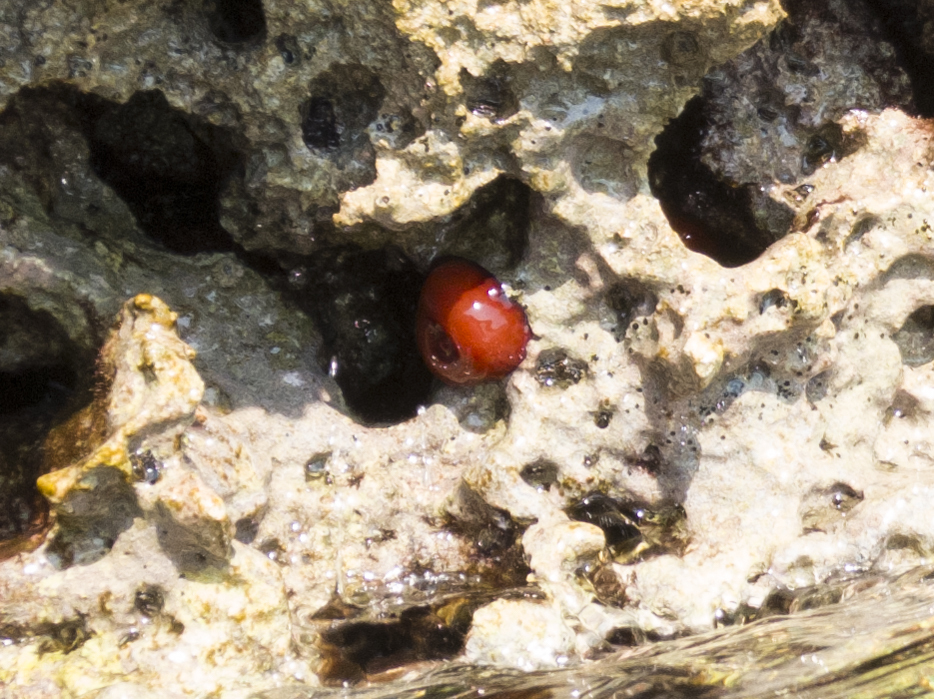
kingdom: Animalia
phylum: Cnidaria
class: Anthozoa
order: Actiniaria
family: Actiniidae
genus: Actinia
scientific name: Actinia mediterranea
